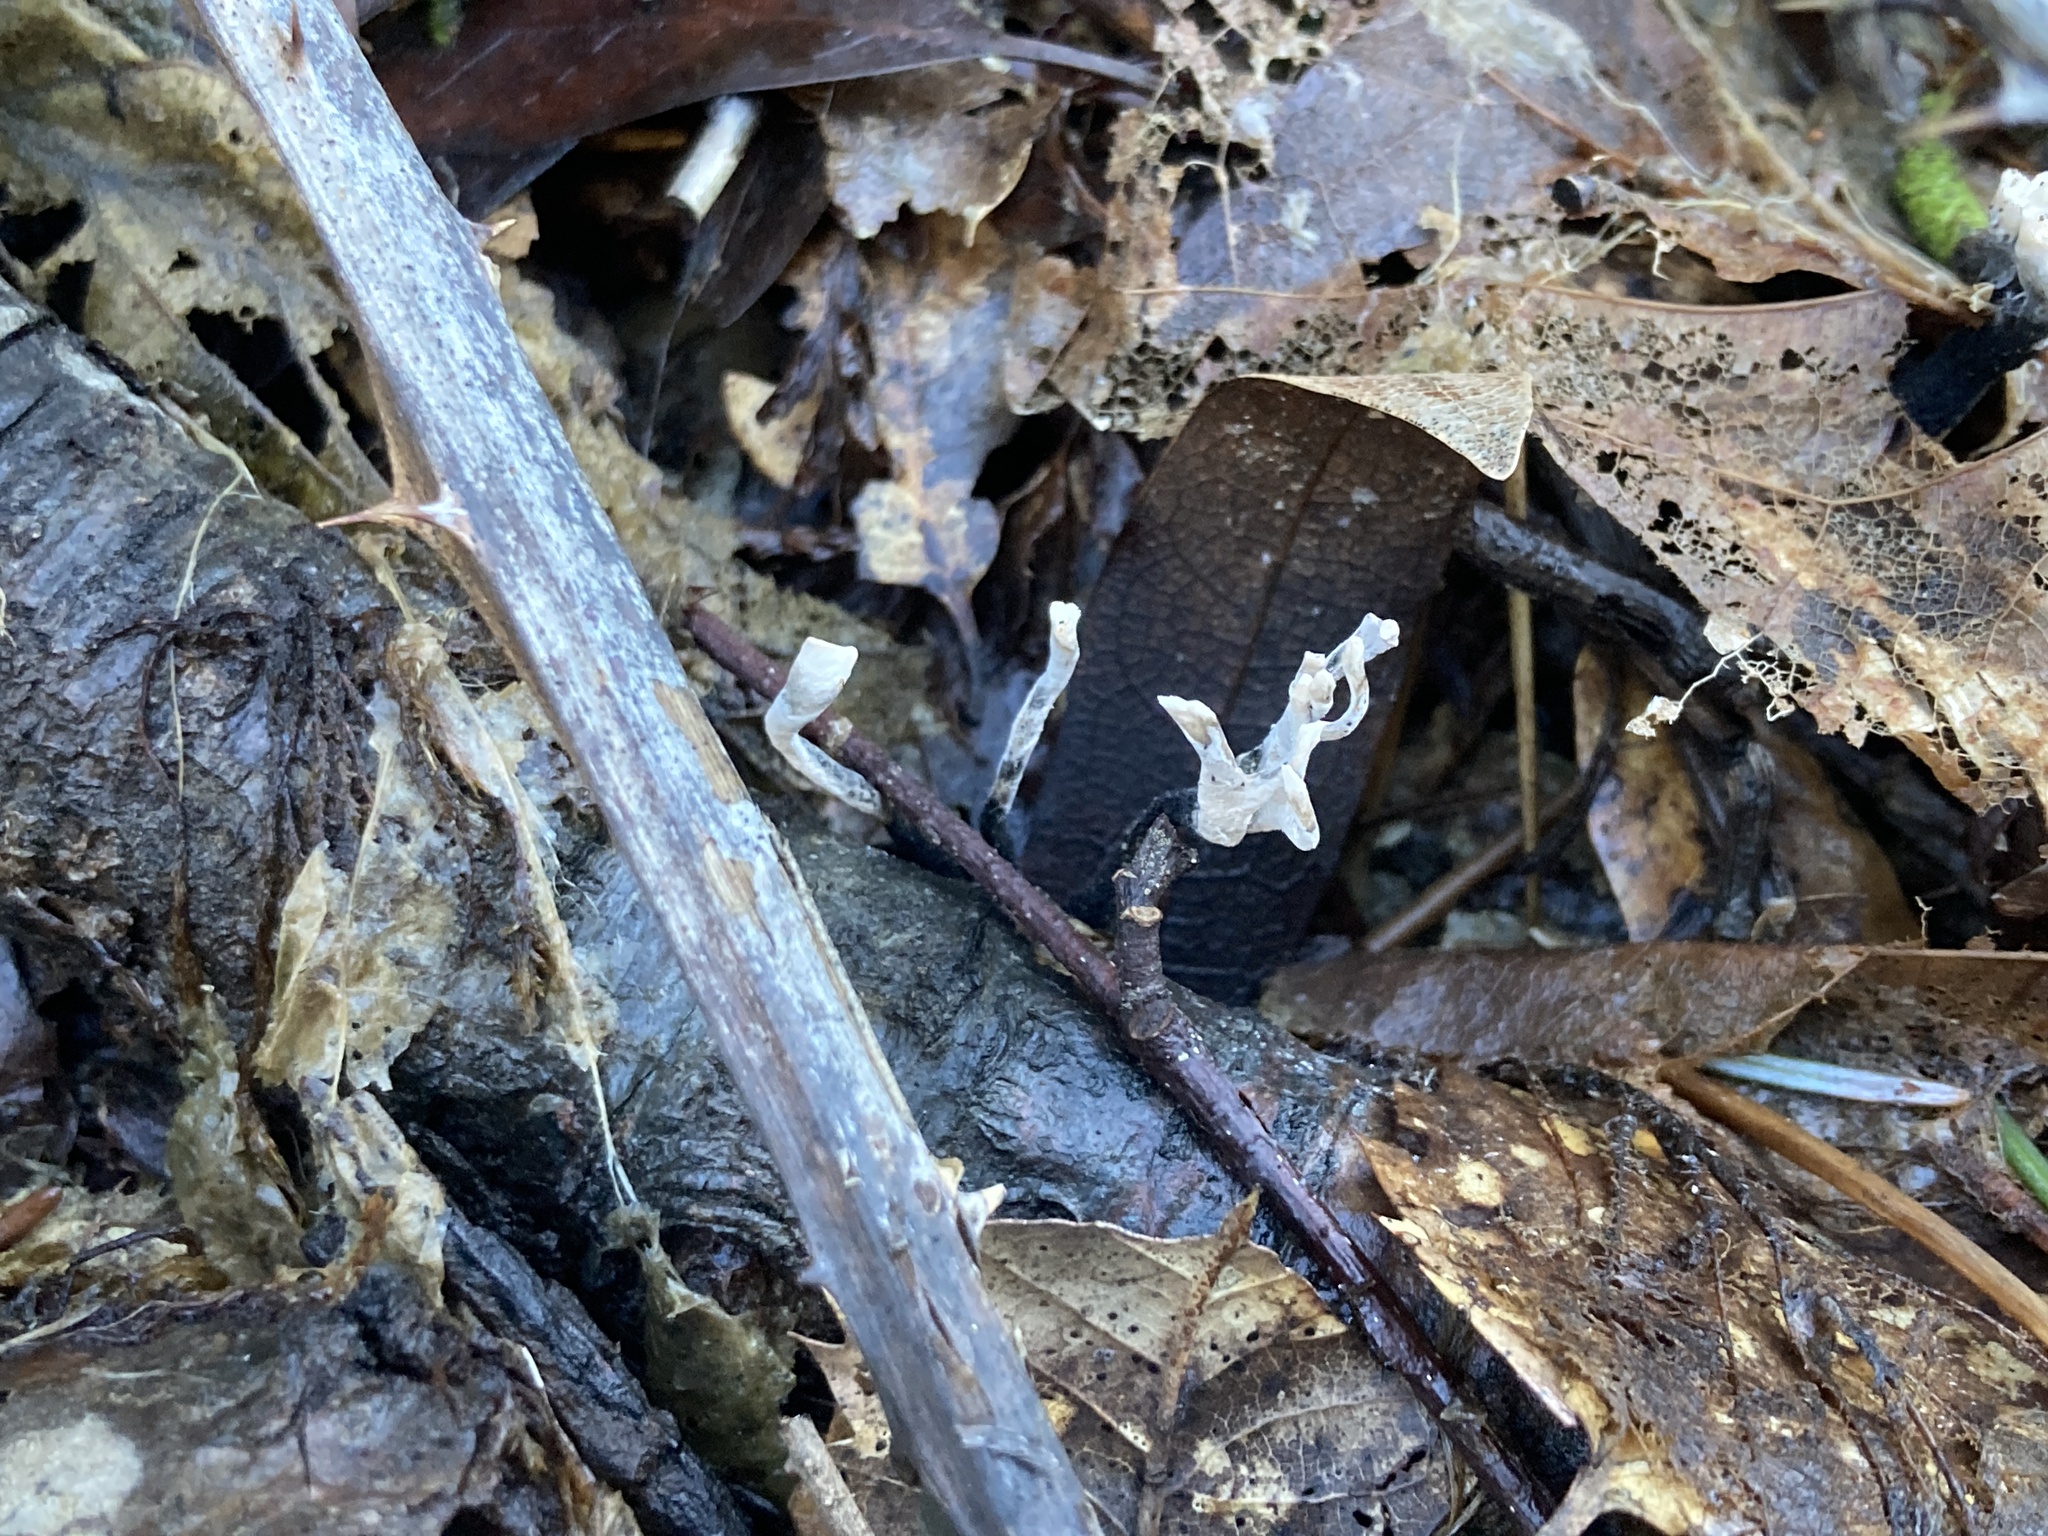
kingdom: Fungi
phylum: Ascomycota
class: Sordariomycetes
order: Xylariales
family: Xylariaceae
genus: Xylaria
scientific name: Xylaria hypoxylon
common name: Candle-snuff fungus
